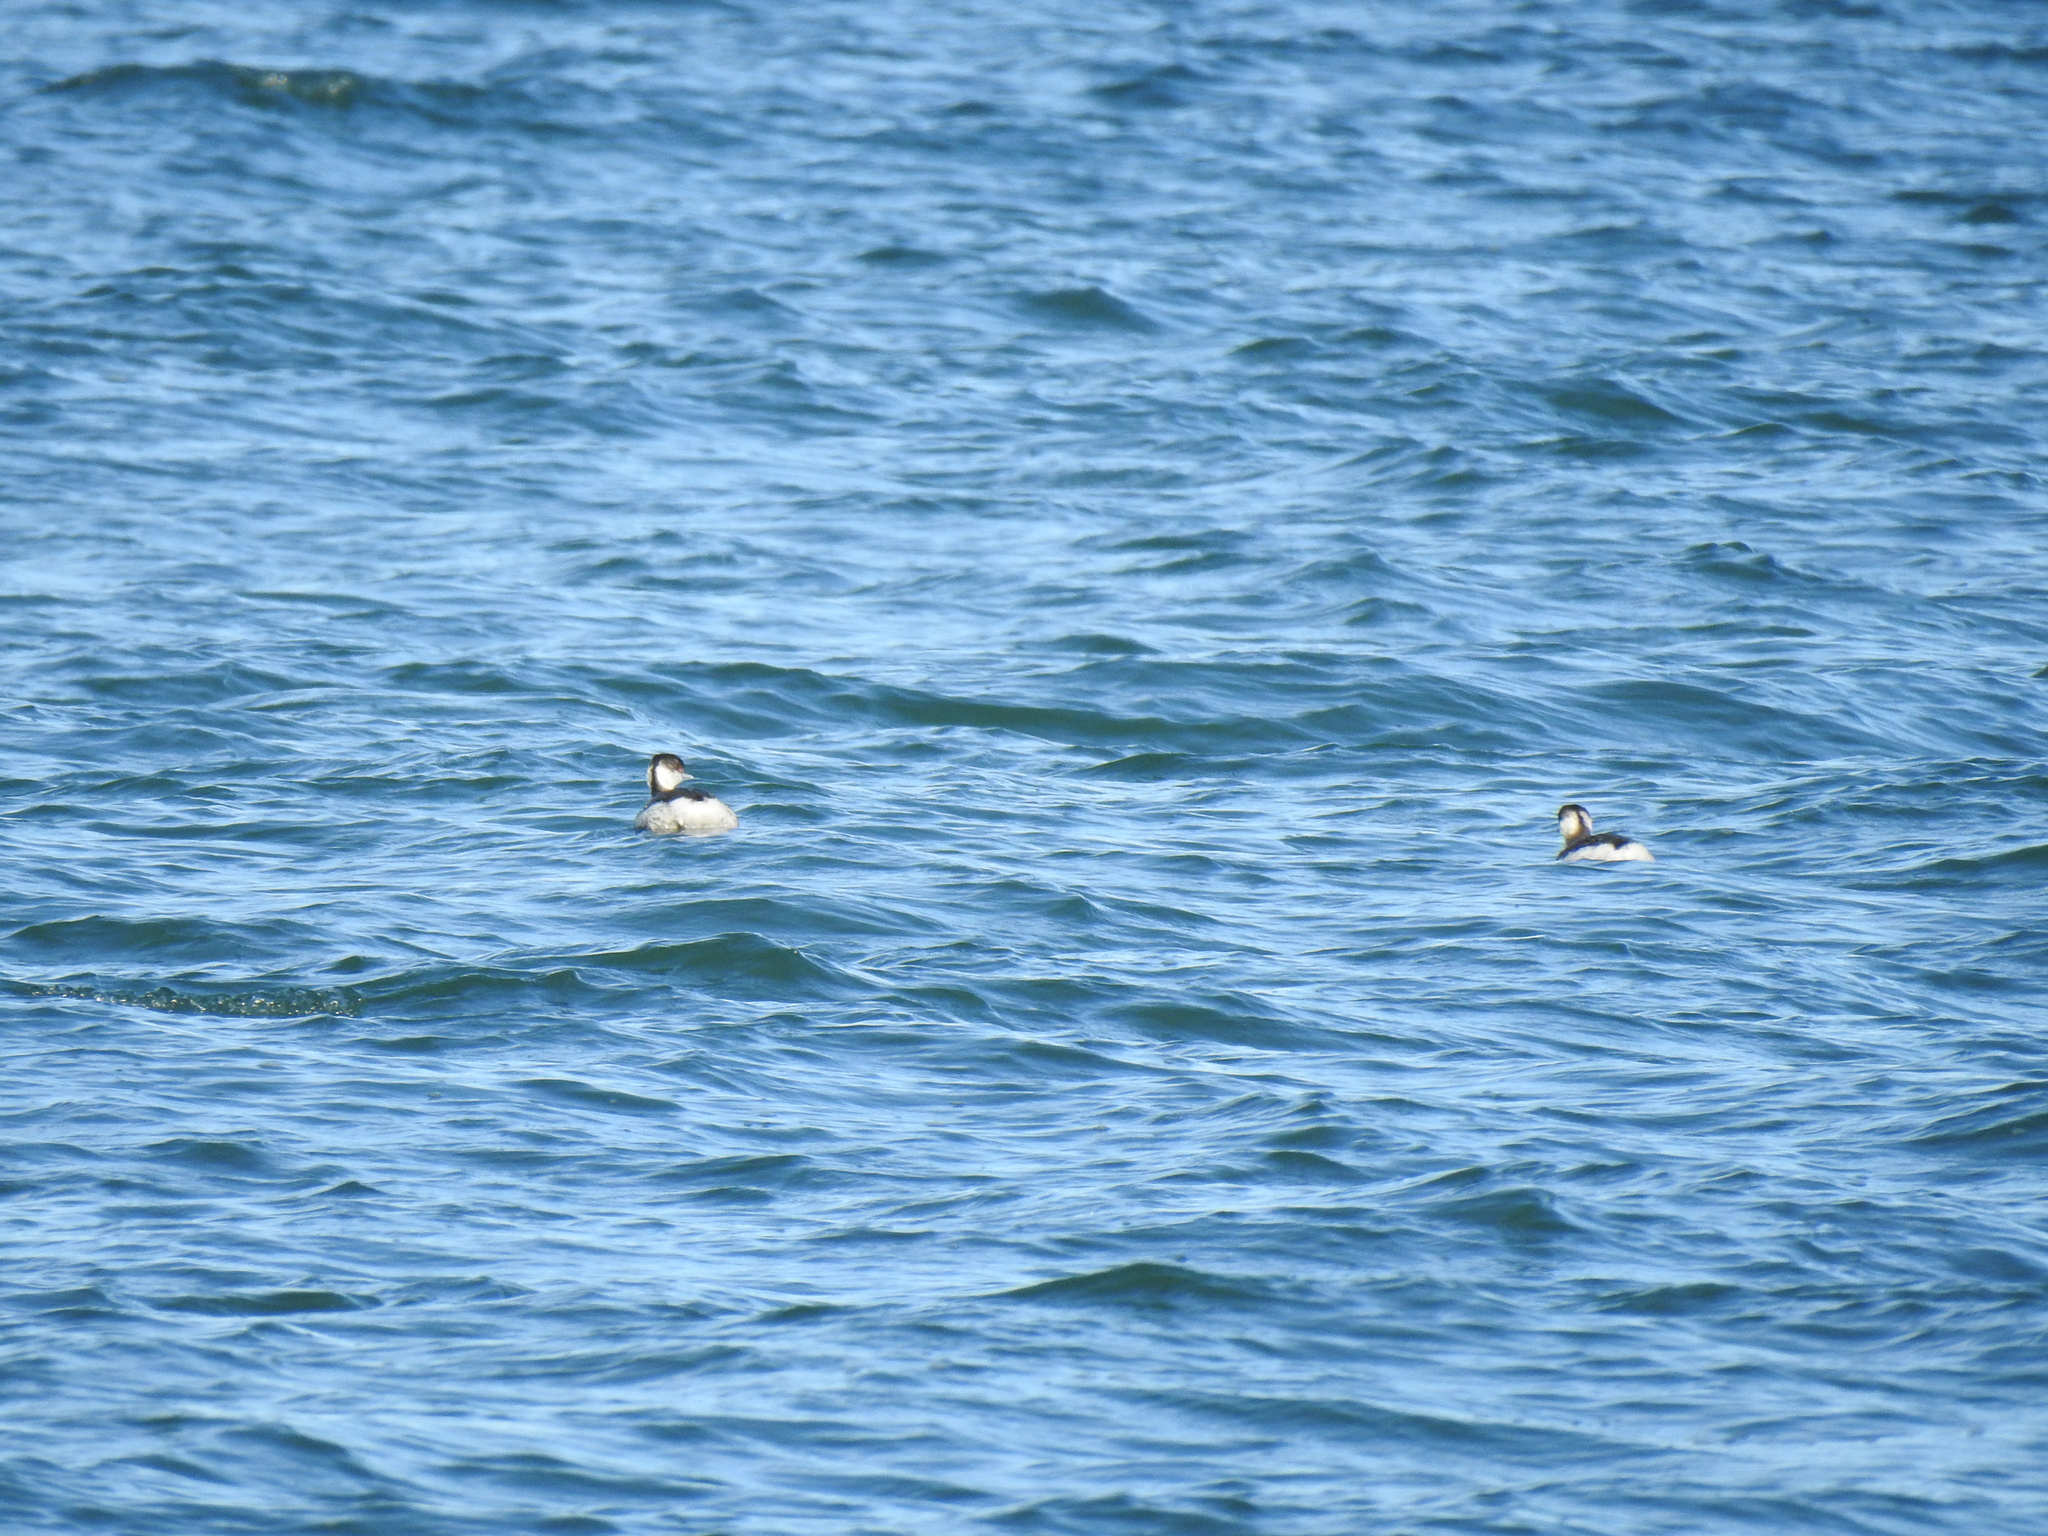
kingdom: Animalia
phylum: Chordata
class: Aves
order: Podicipediformes
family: Podicipedidae
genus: Podiceps
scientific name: Podiceps auritus
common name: Horned grebe
